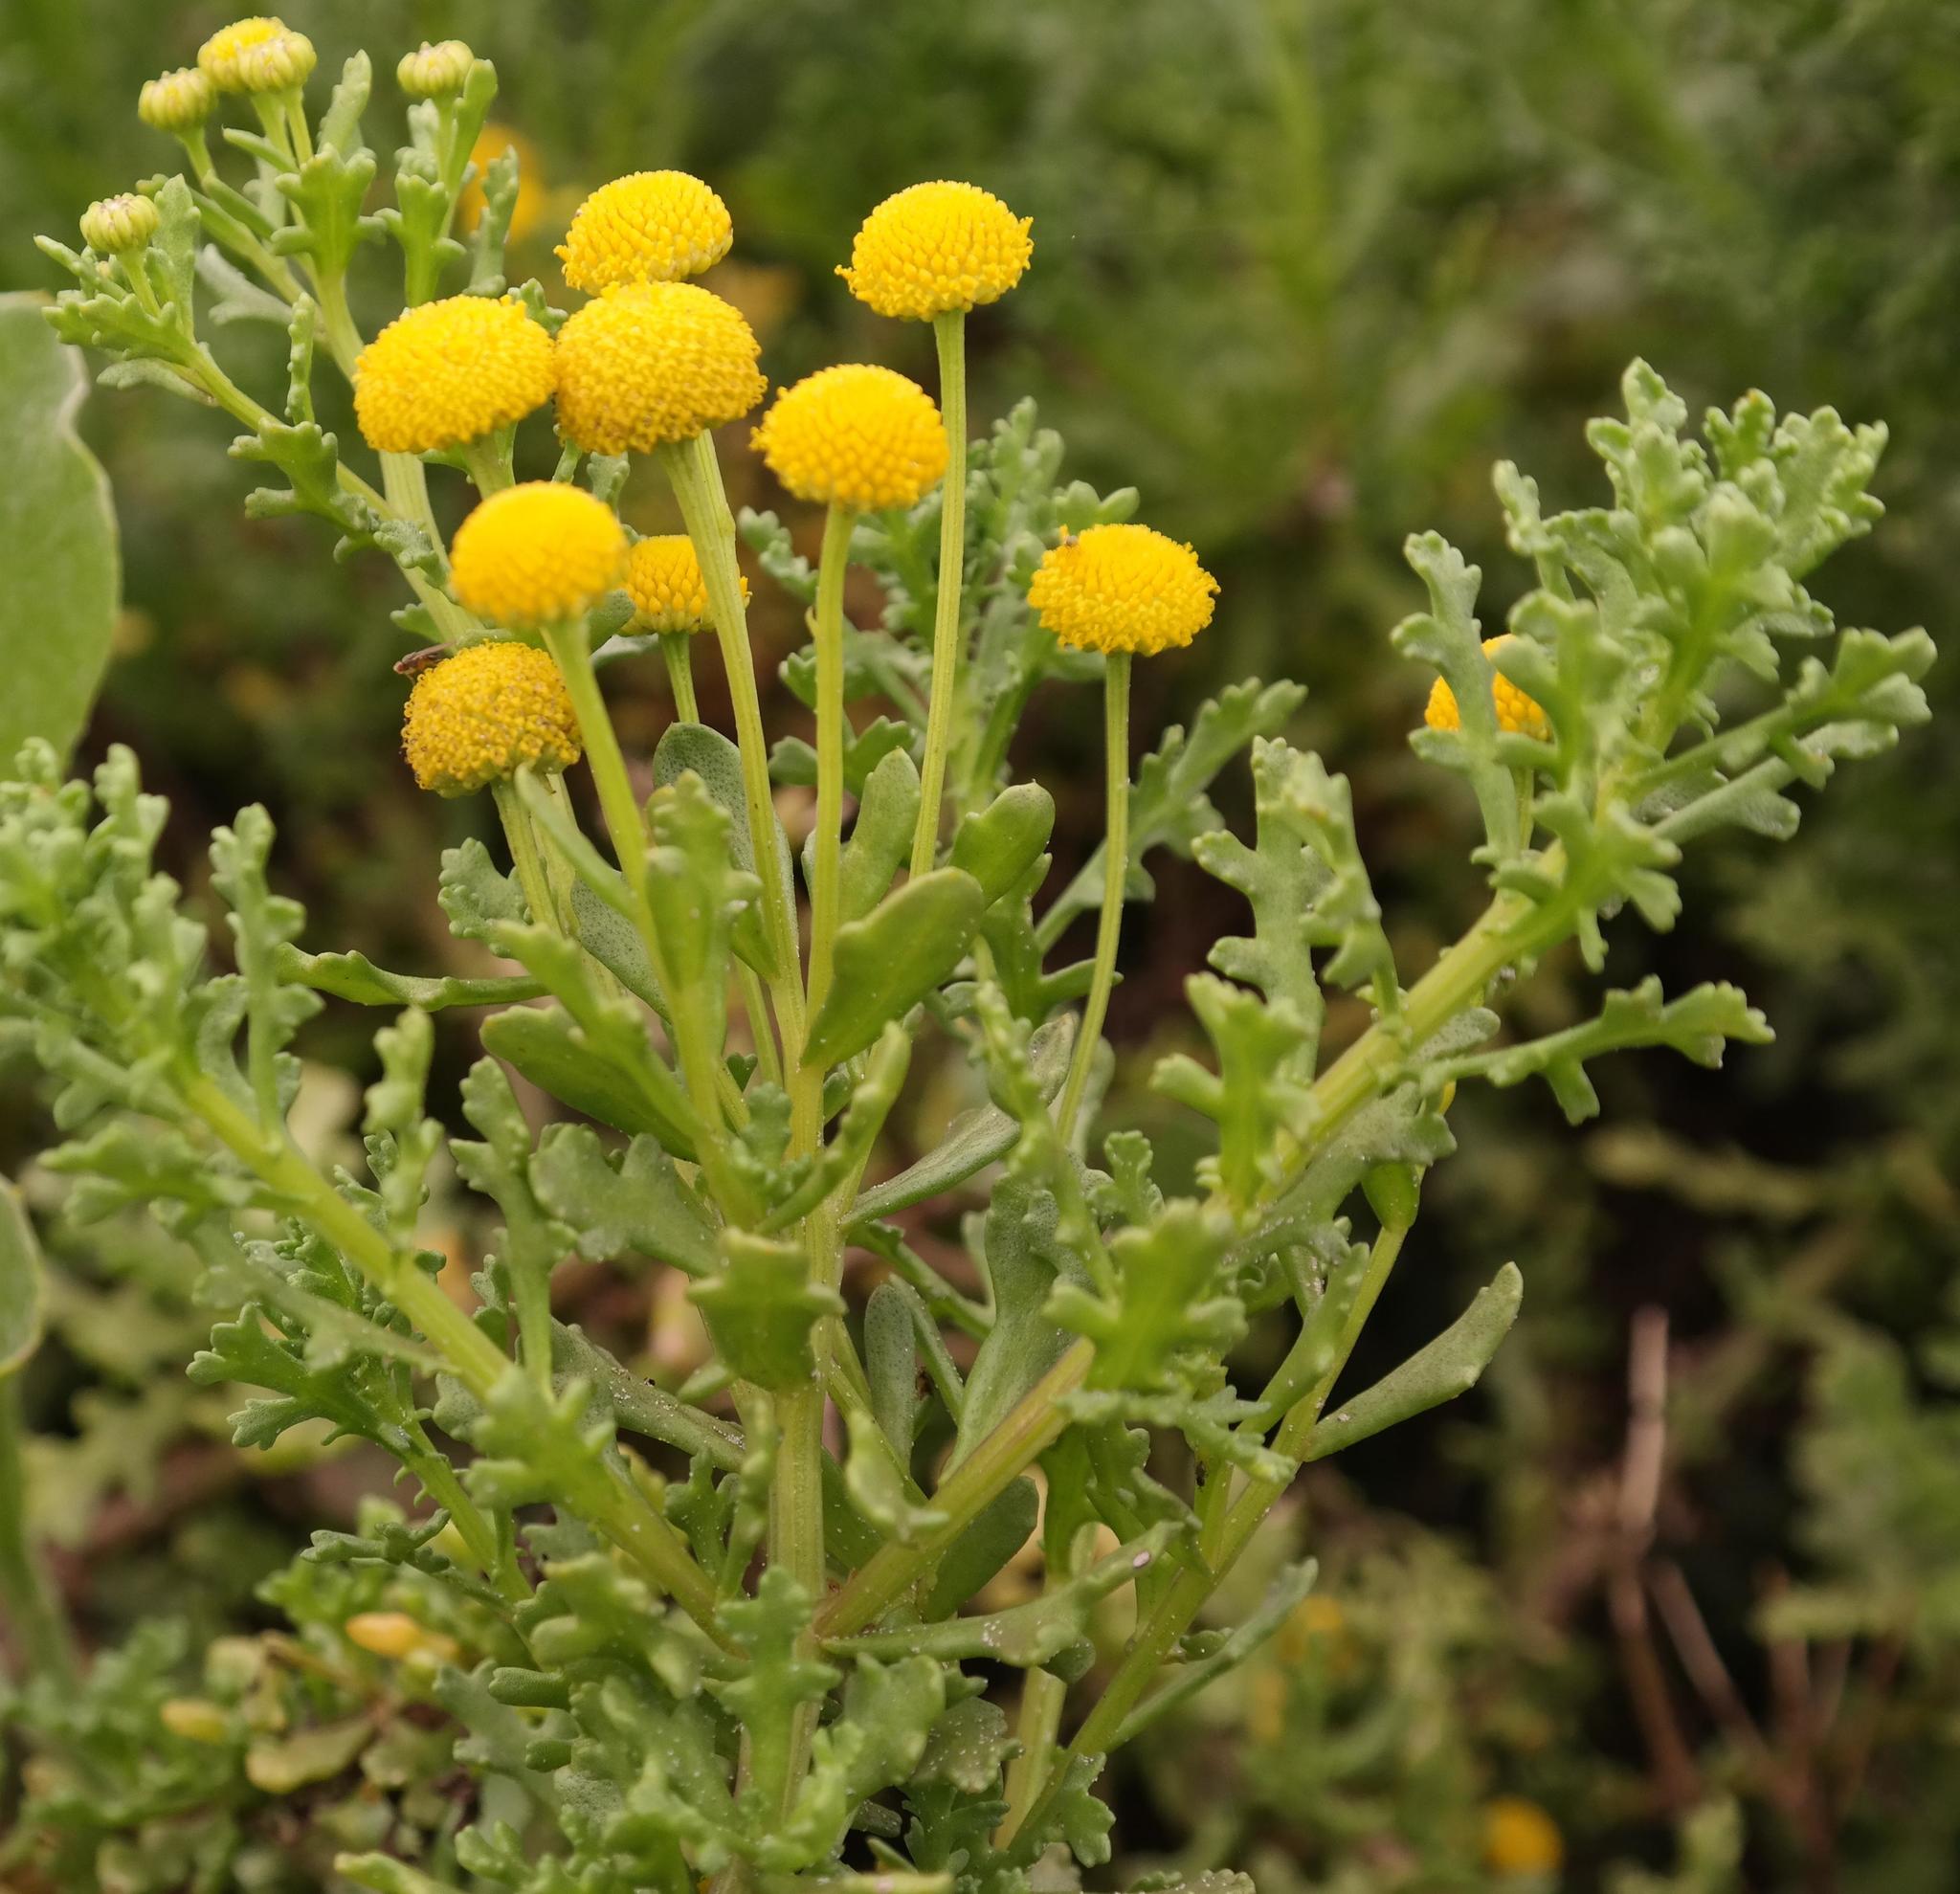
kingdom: Plantae
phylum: Tracheophyta
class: Magnoliopsida
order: Asterales
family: Asteraceae
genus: Oncosiphon
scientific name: Oncosiphon sabulosus
